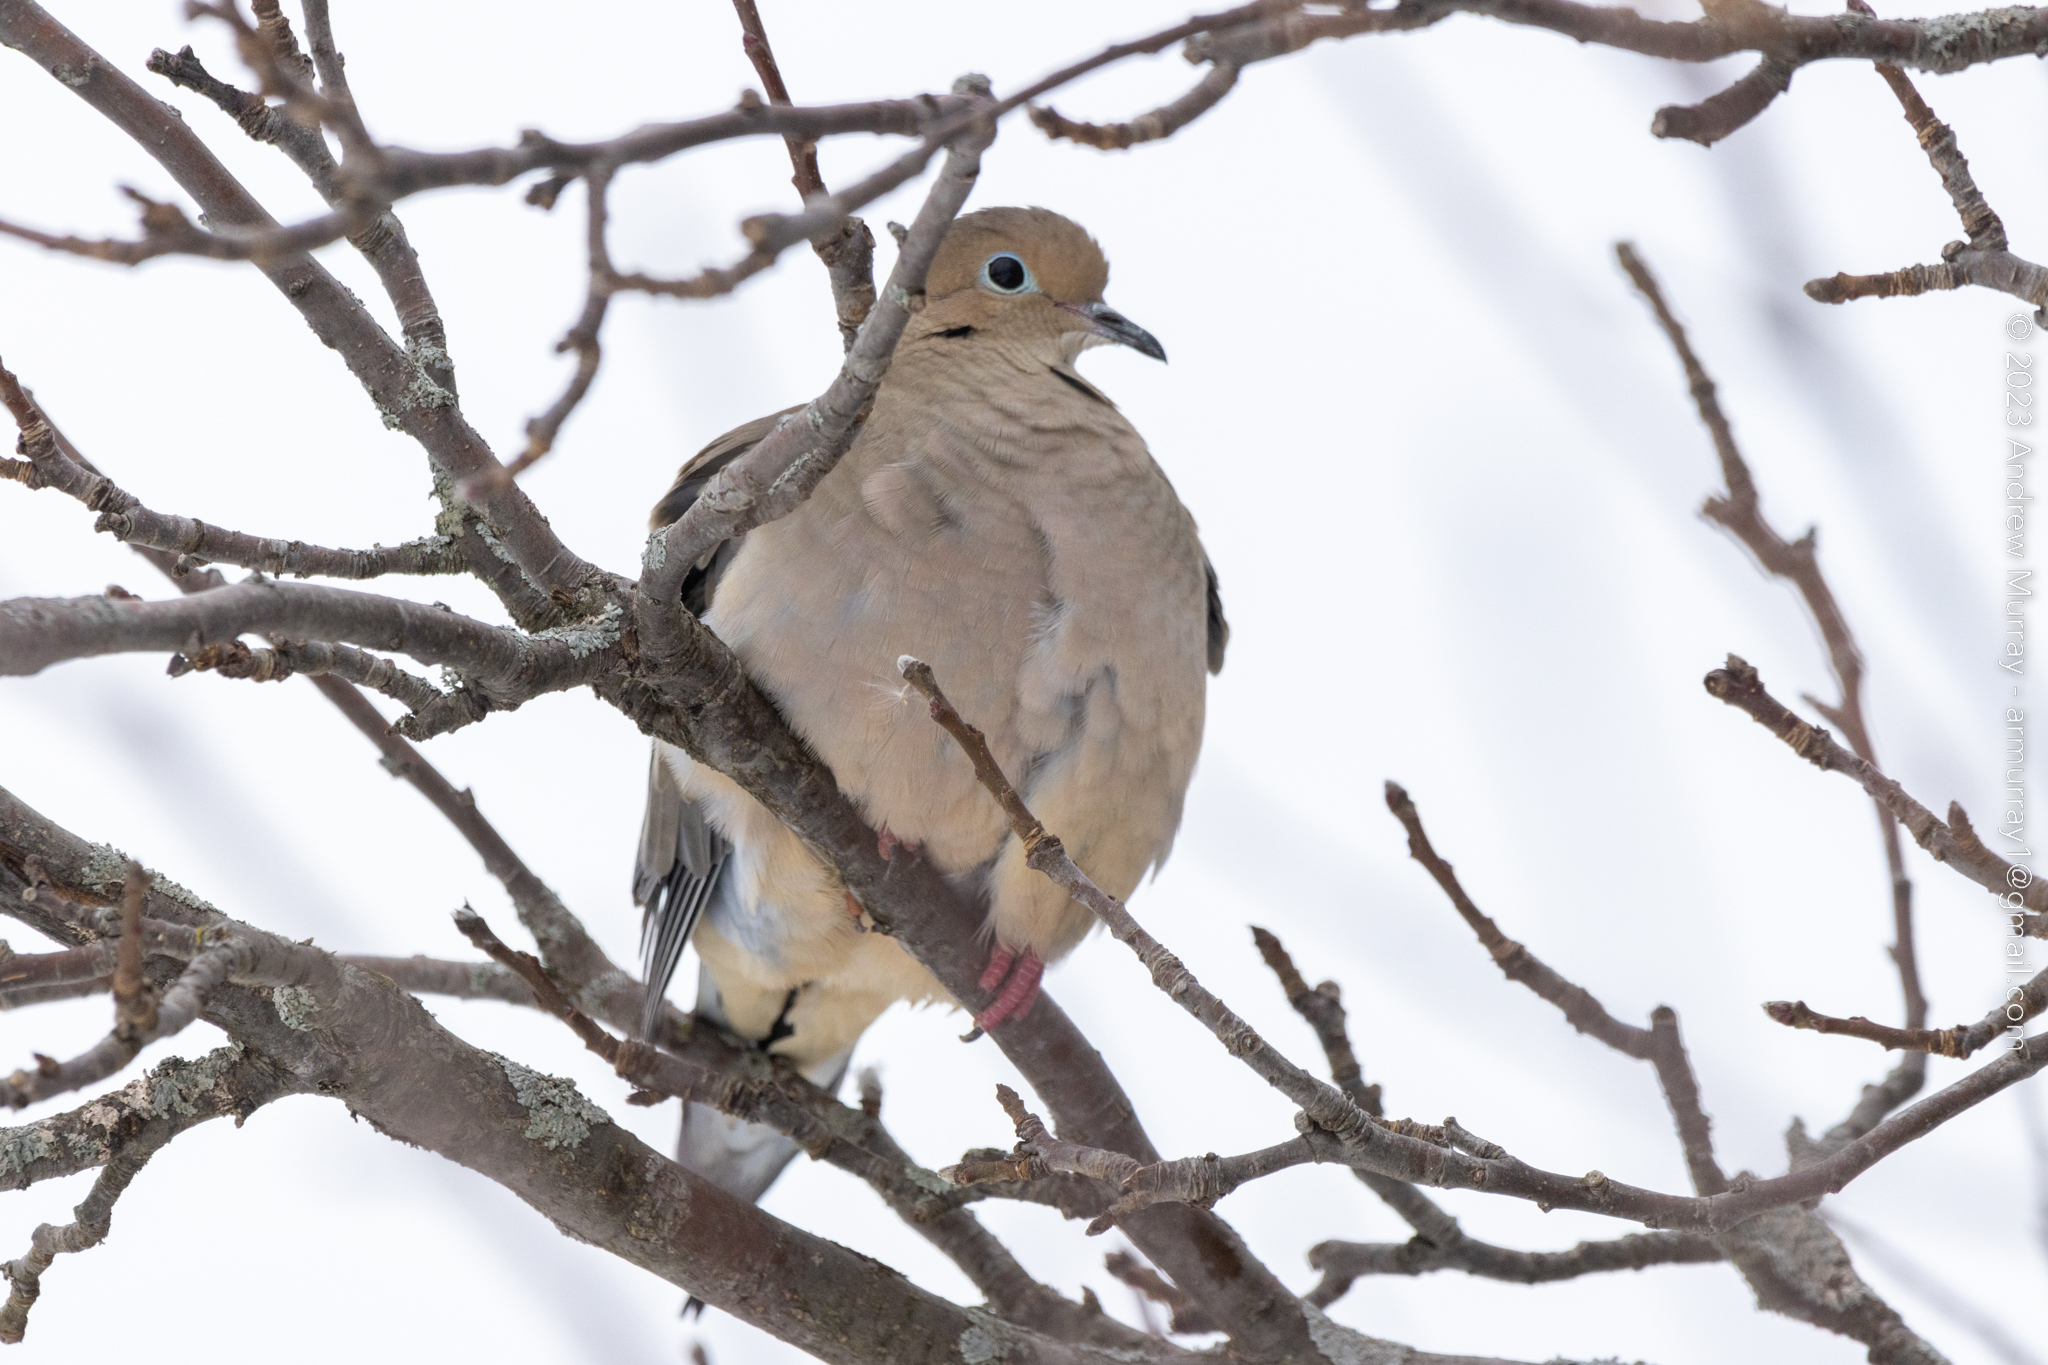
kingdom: Animalia
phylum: Chordata
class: Aves
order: Columbiformes
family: Columbidae
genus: Zenaida
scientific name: Zenaida macroura
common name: Mourning dove
